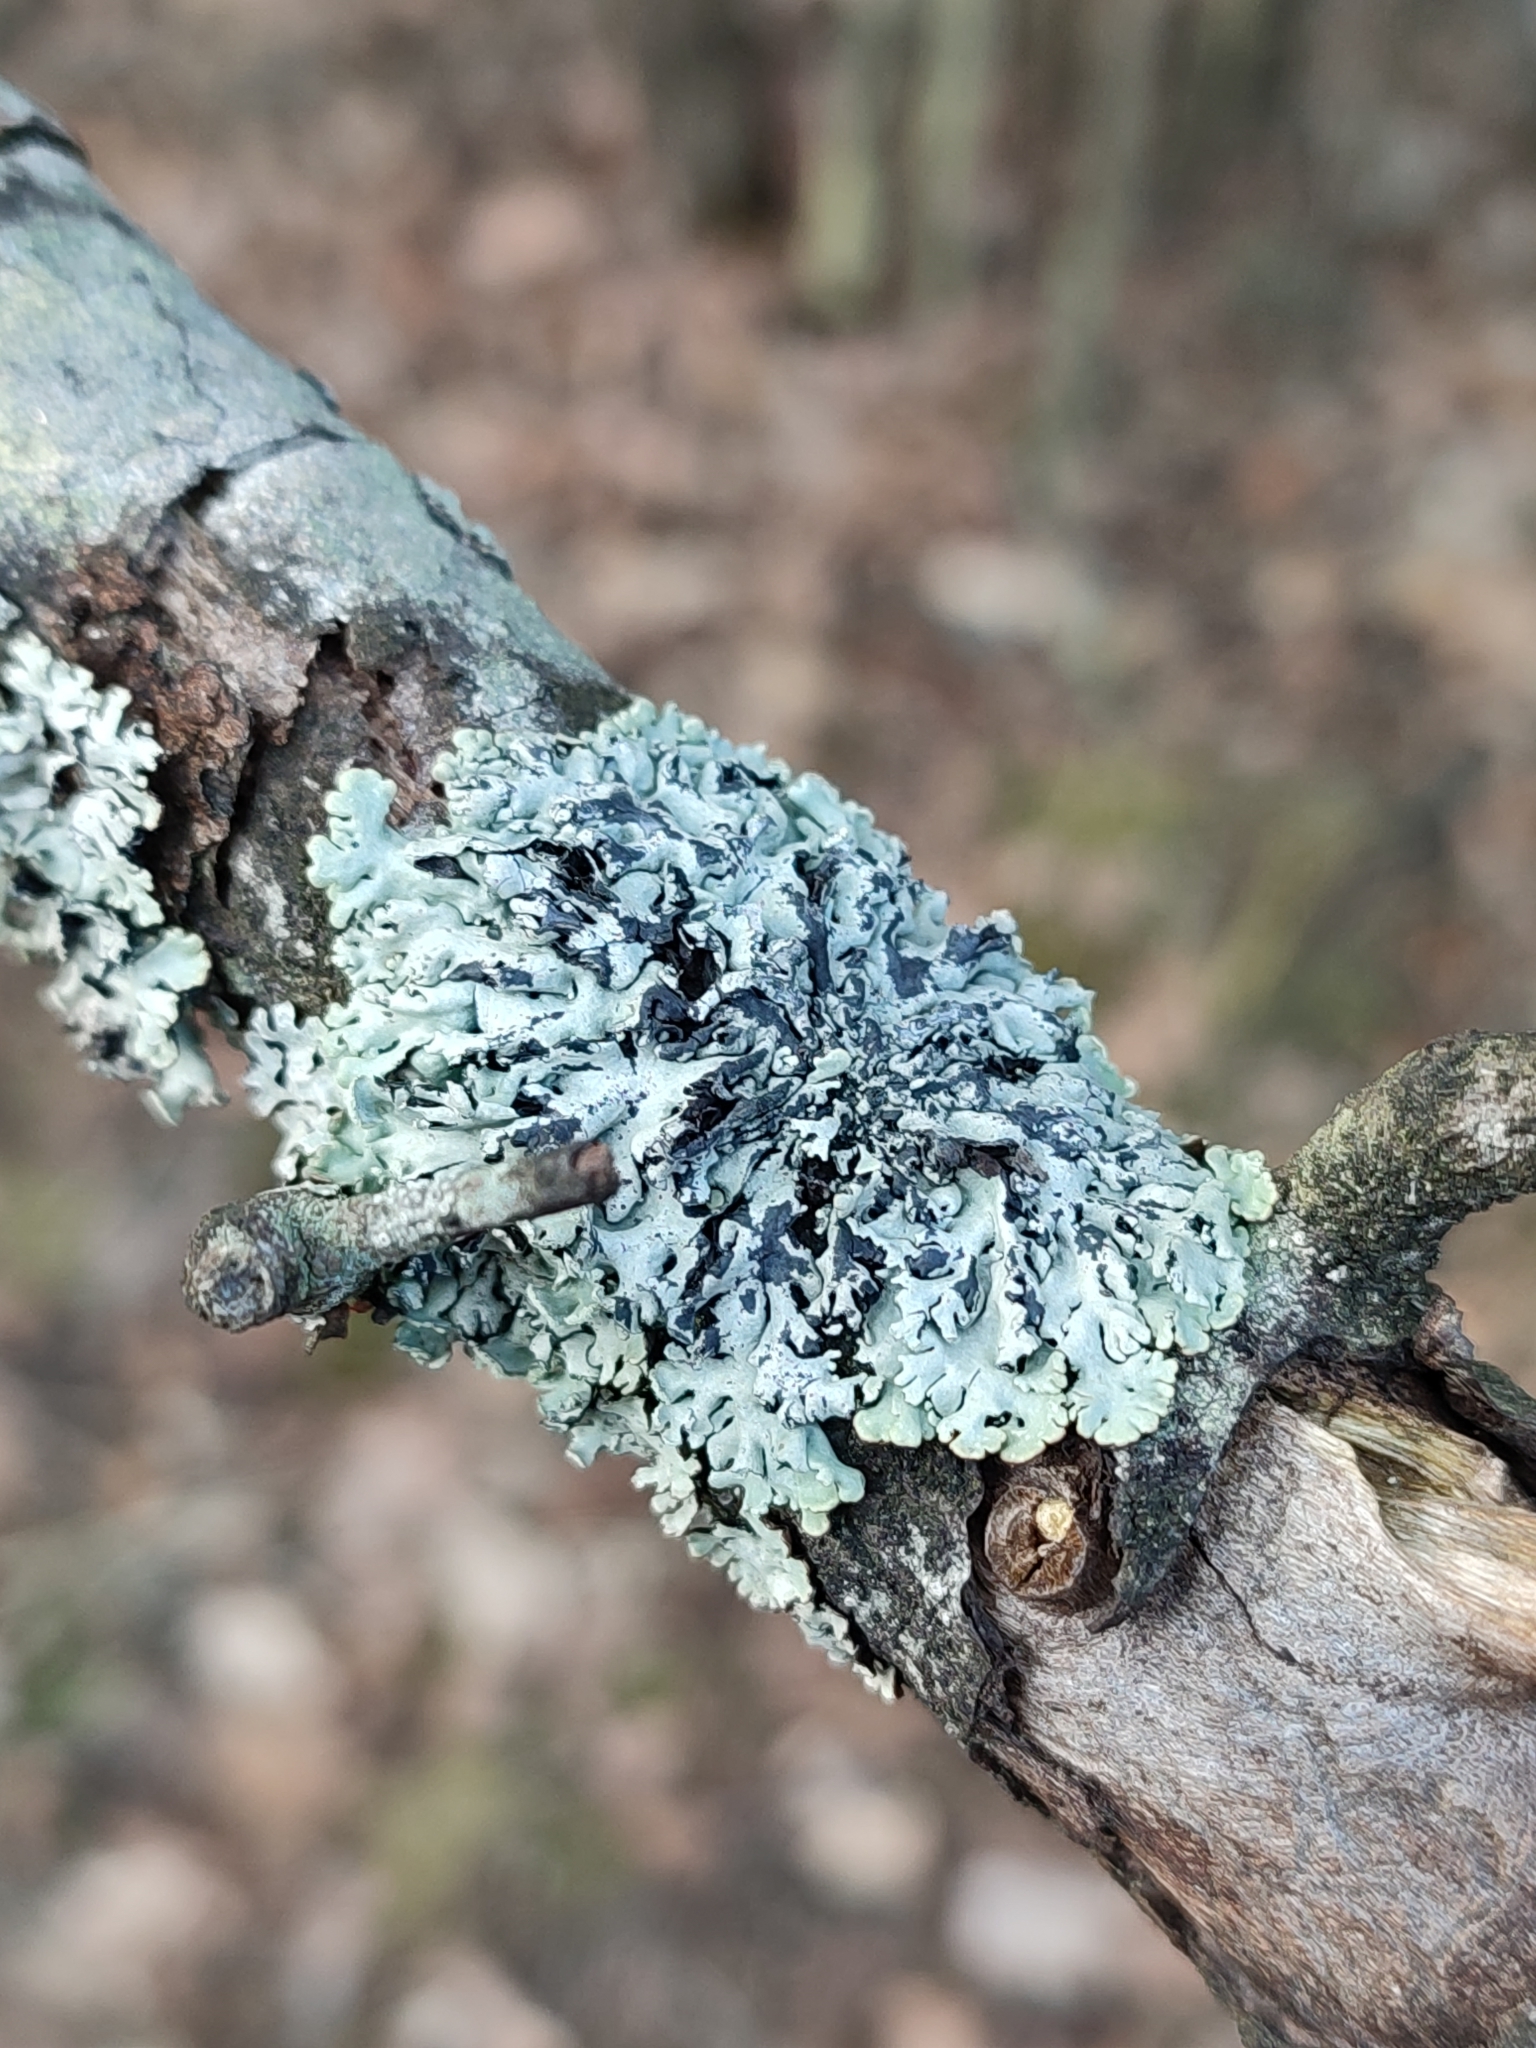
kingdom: Fungi
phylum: Ascomycota
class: Lecanoromycetes
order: Lecanorales
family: Parmeliaceae
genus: Hypogymnia
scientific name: Hypogymnia physodes
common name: Dark crottle
